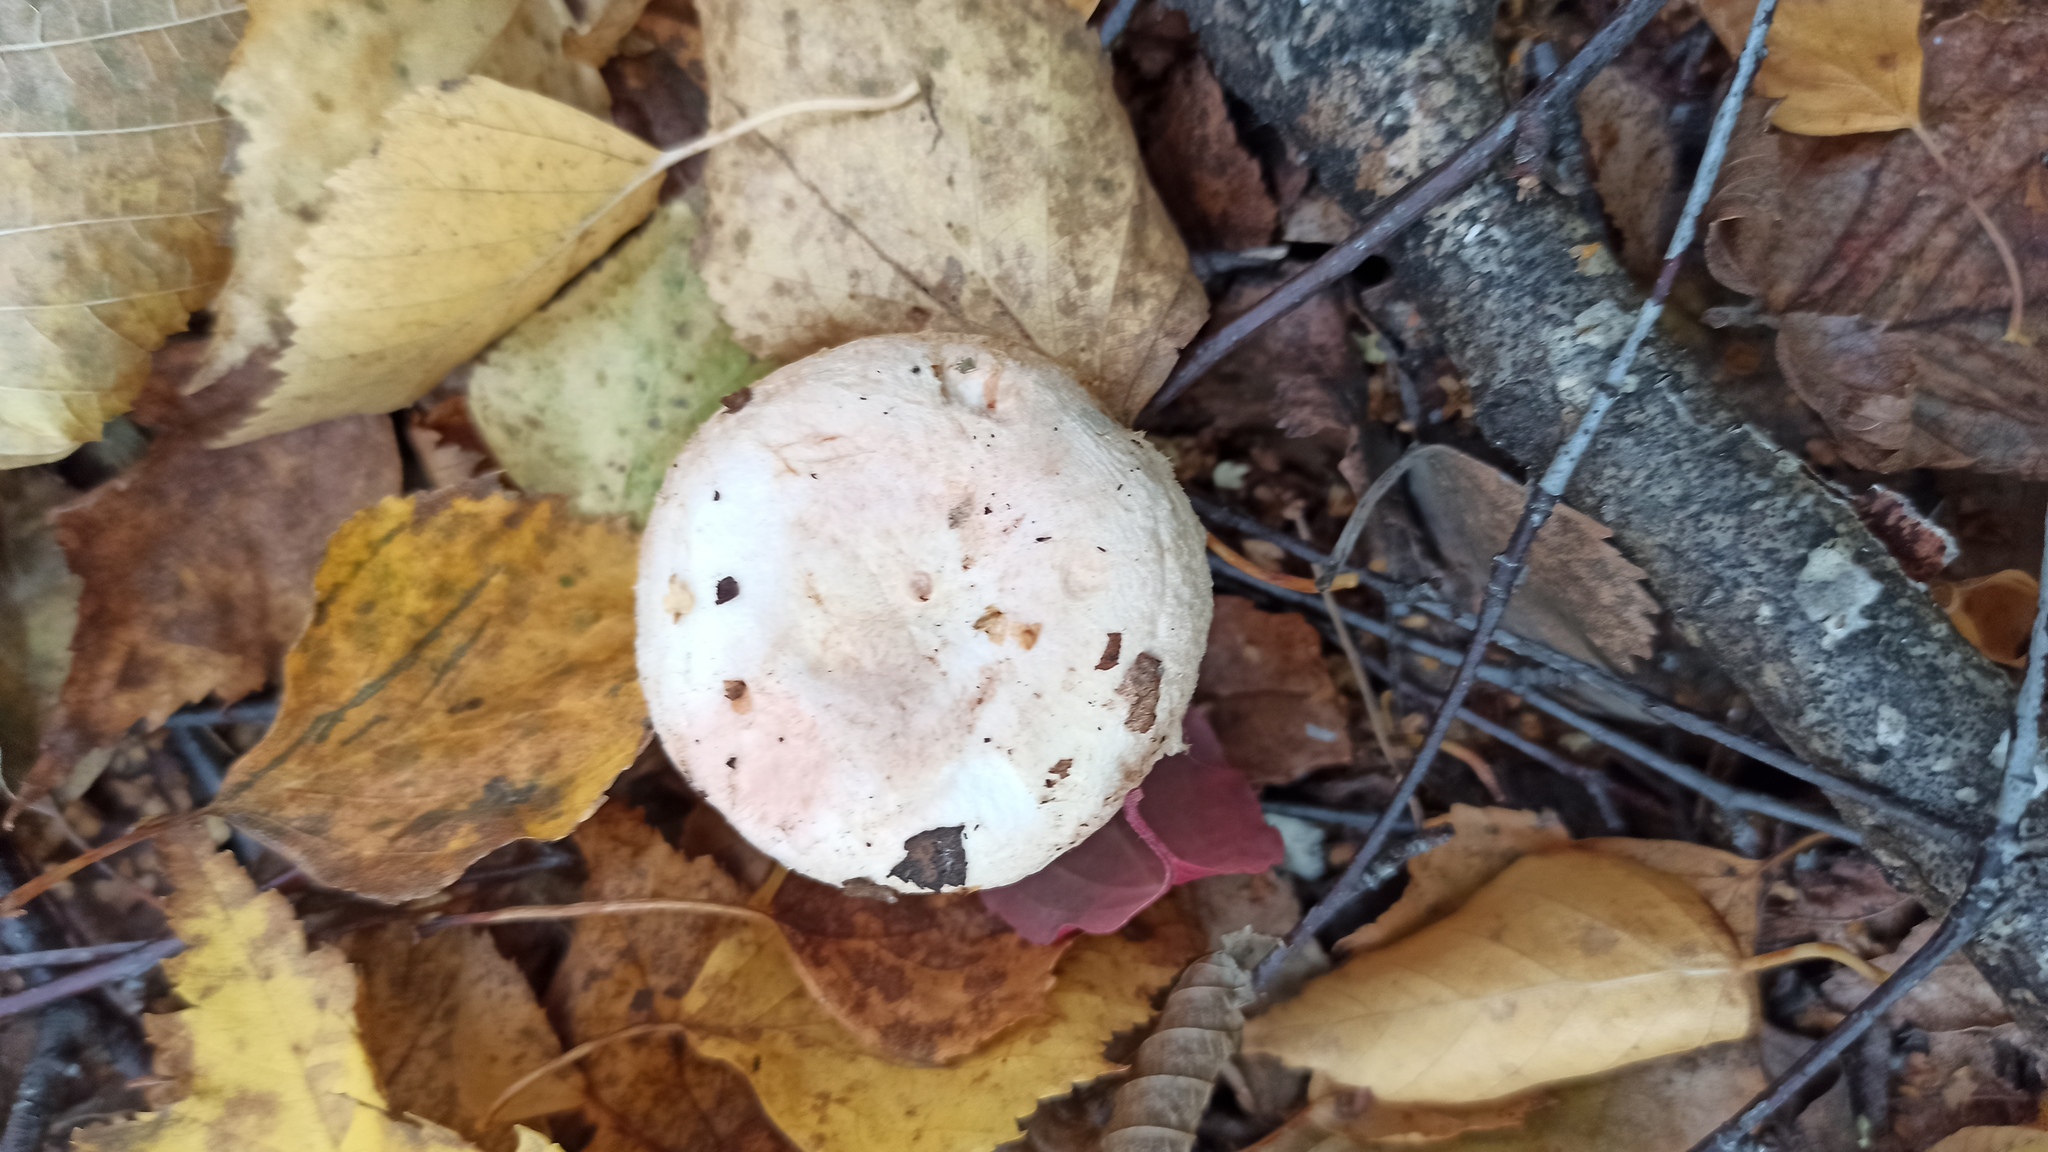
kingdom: Fungi
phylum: Basidiomycota
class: Agaricomycetes
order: Russulales
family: Russulaceae
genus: Lactarius
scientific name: Lactarius pubescens
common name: Bearded milkcap
